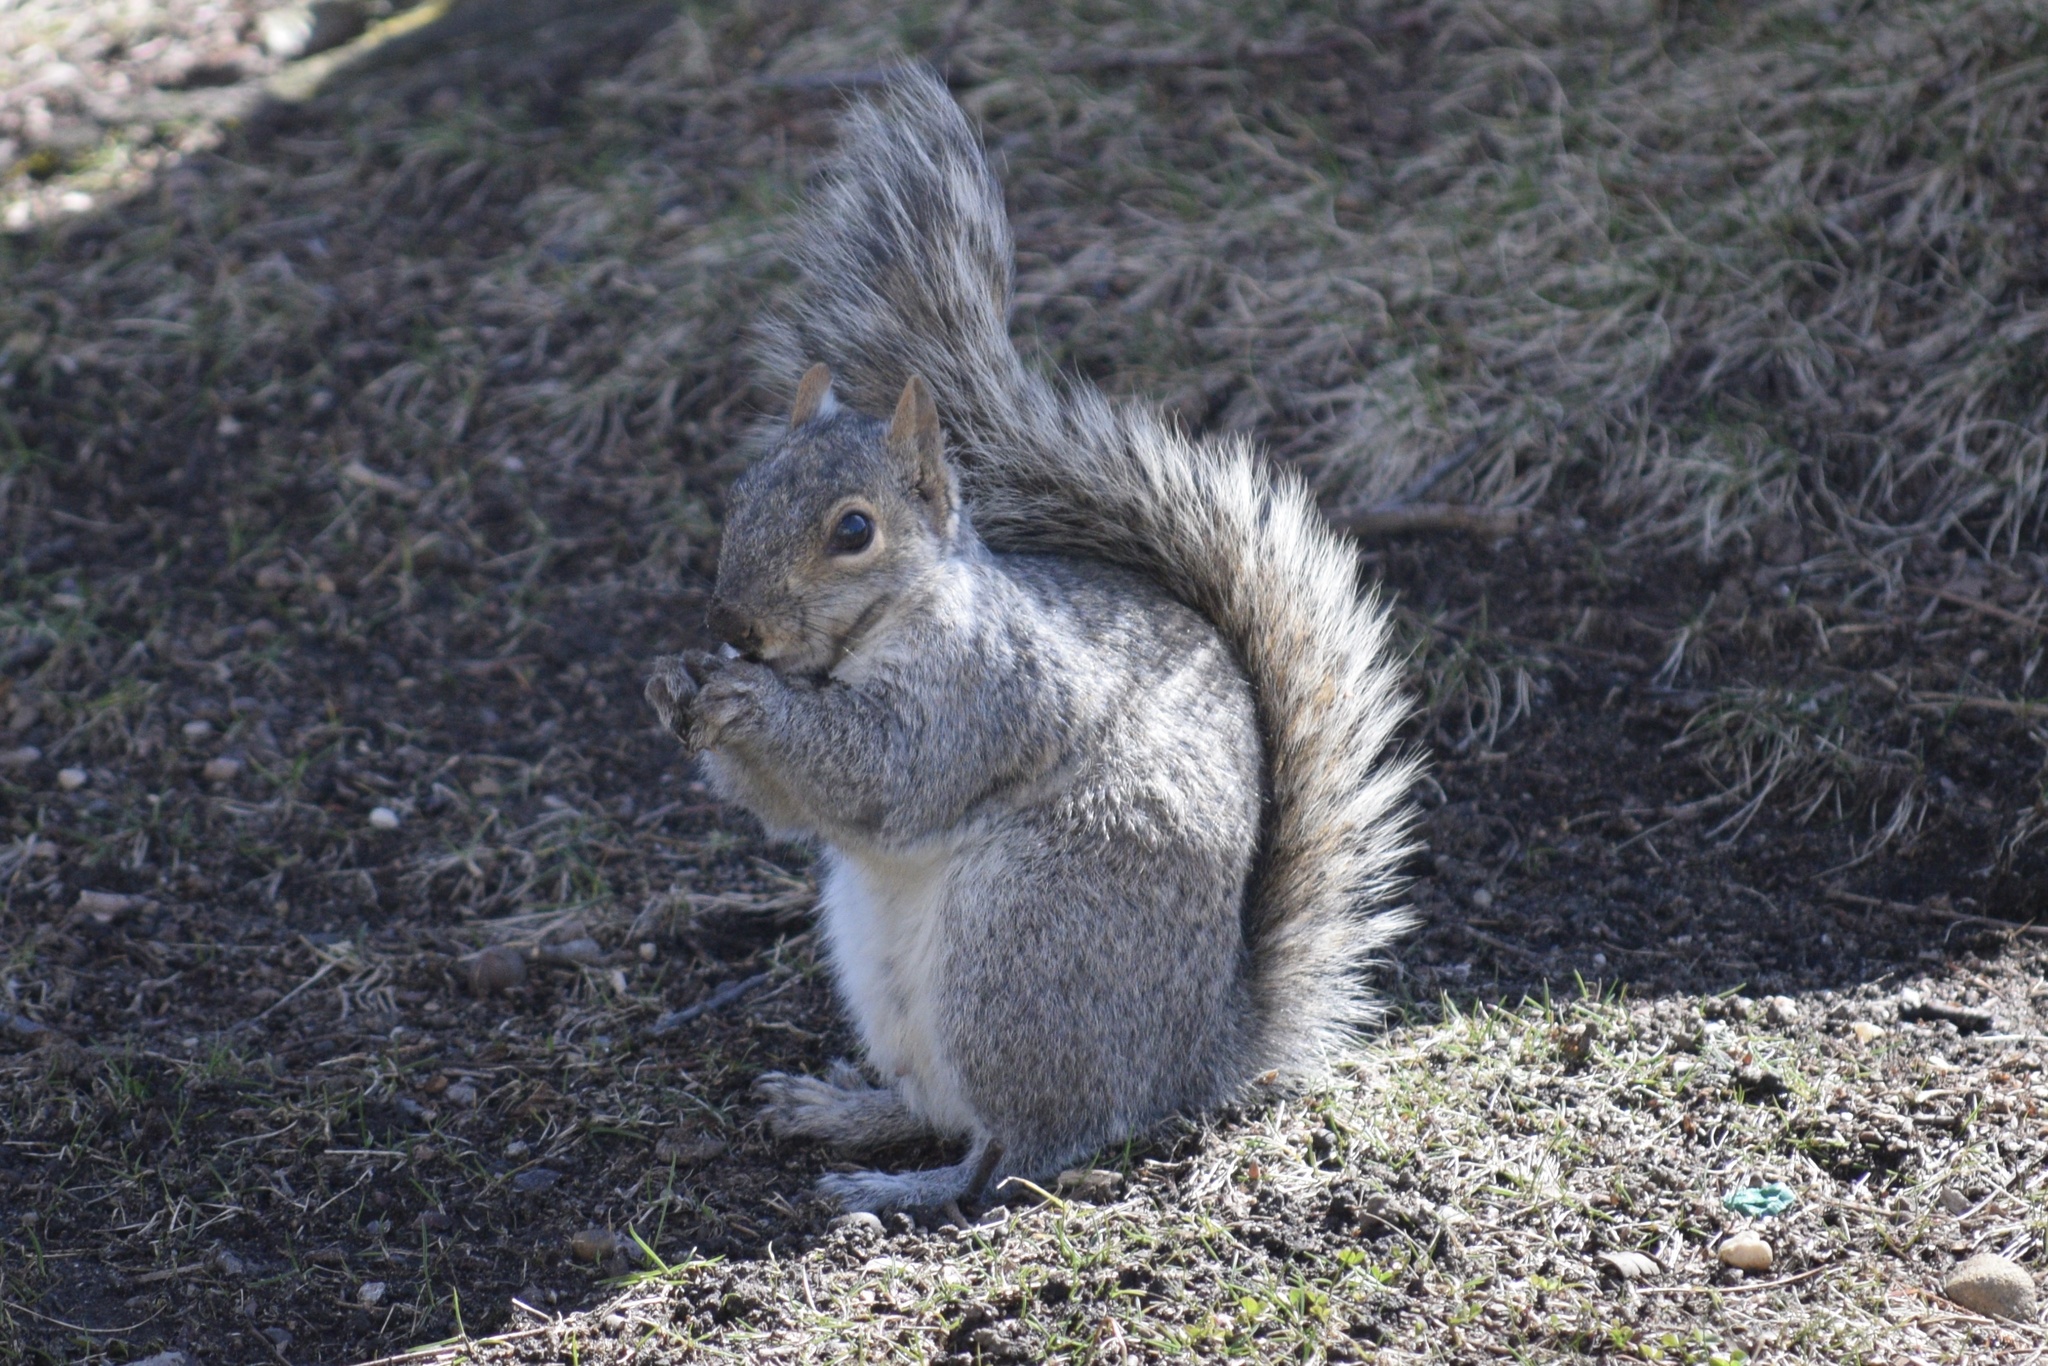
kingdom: Animalia
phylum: Chordata
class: Mammalia
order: Rodentia
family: Sciuridae
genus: Sciurus
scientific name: Sciurus carolinensis
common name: Eastern gray squirrel
